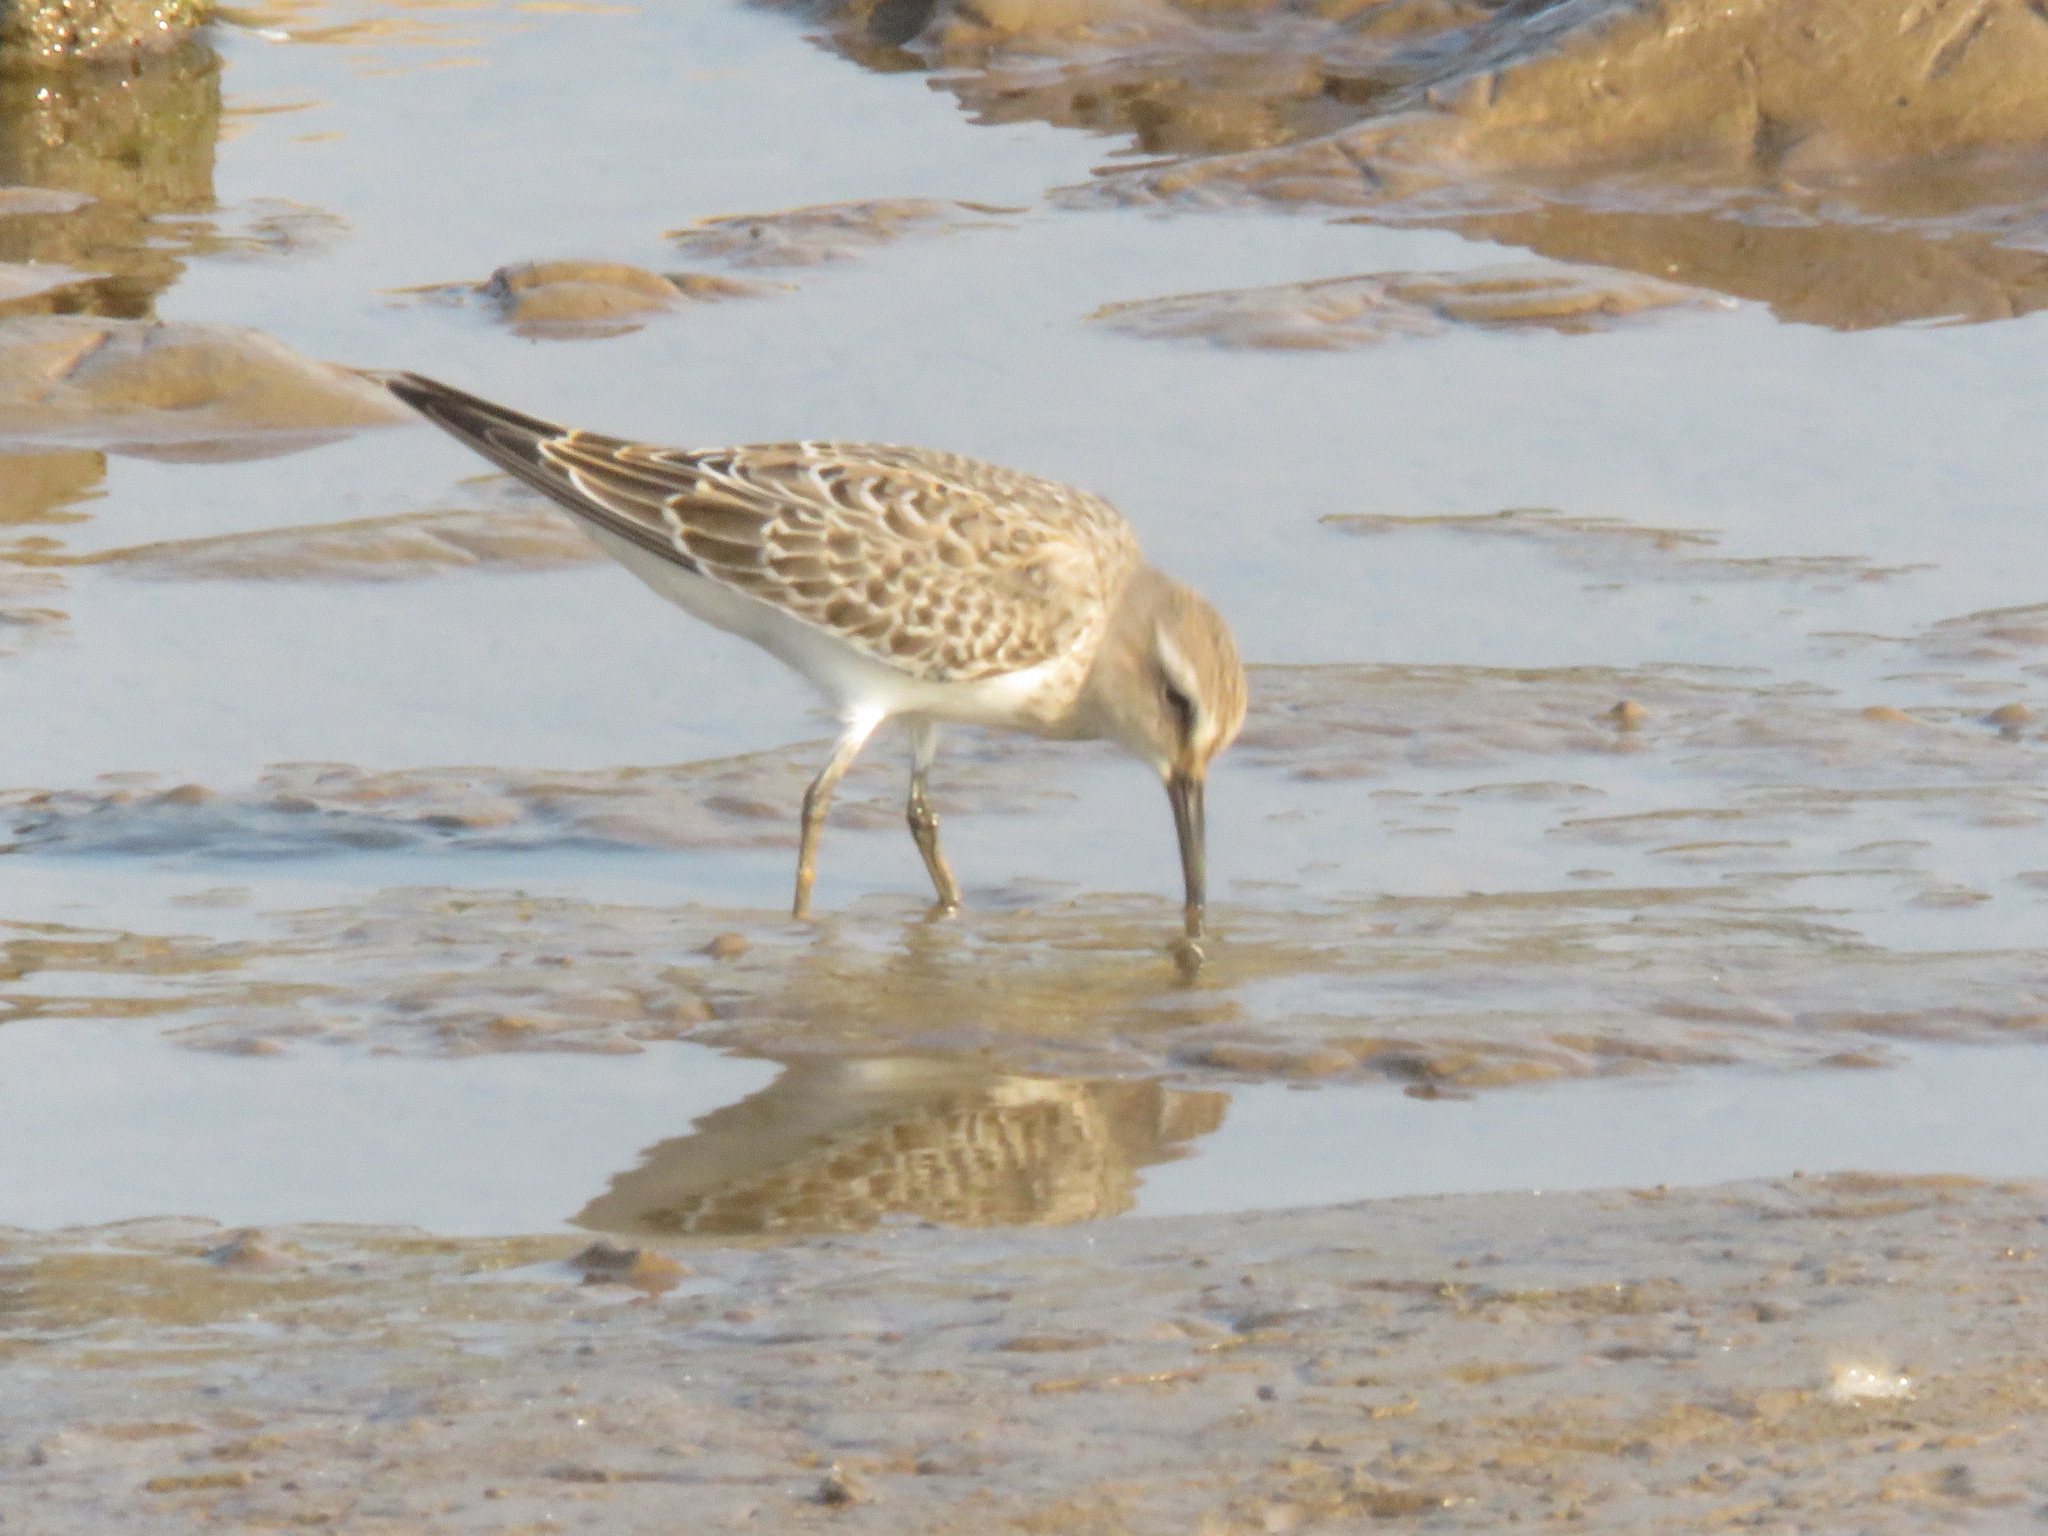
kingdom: Animalia
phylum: Chordata
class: Aves
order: Charadriiformes
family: Scolopacidae
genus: Calidris
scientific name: Calidris fuscicollis
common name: White-rumped sandpiper
